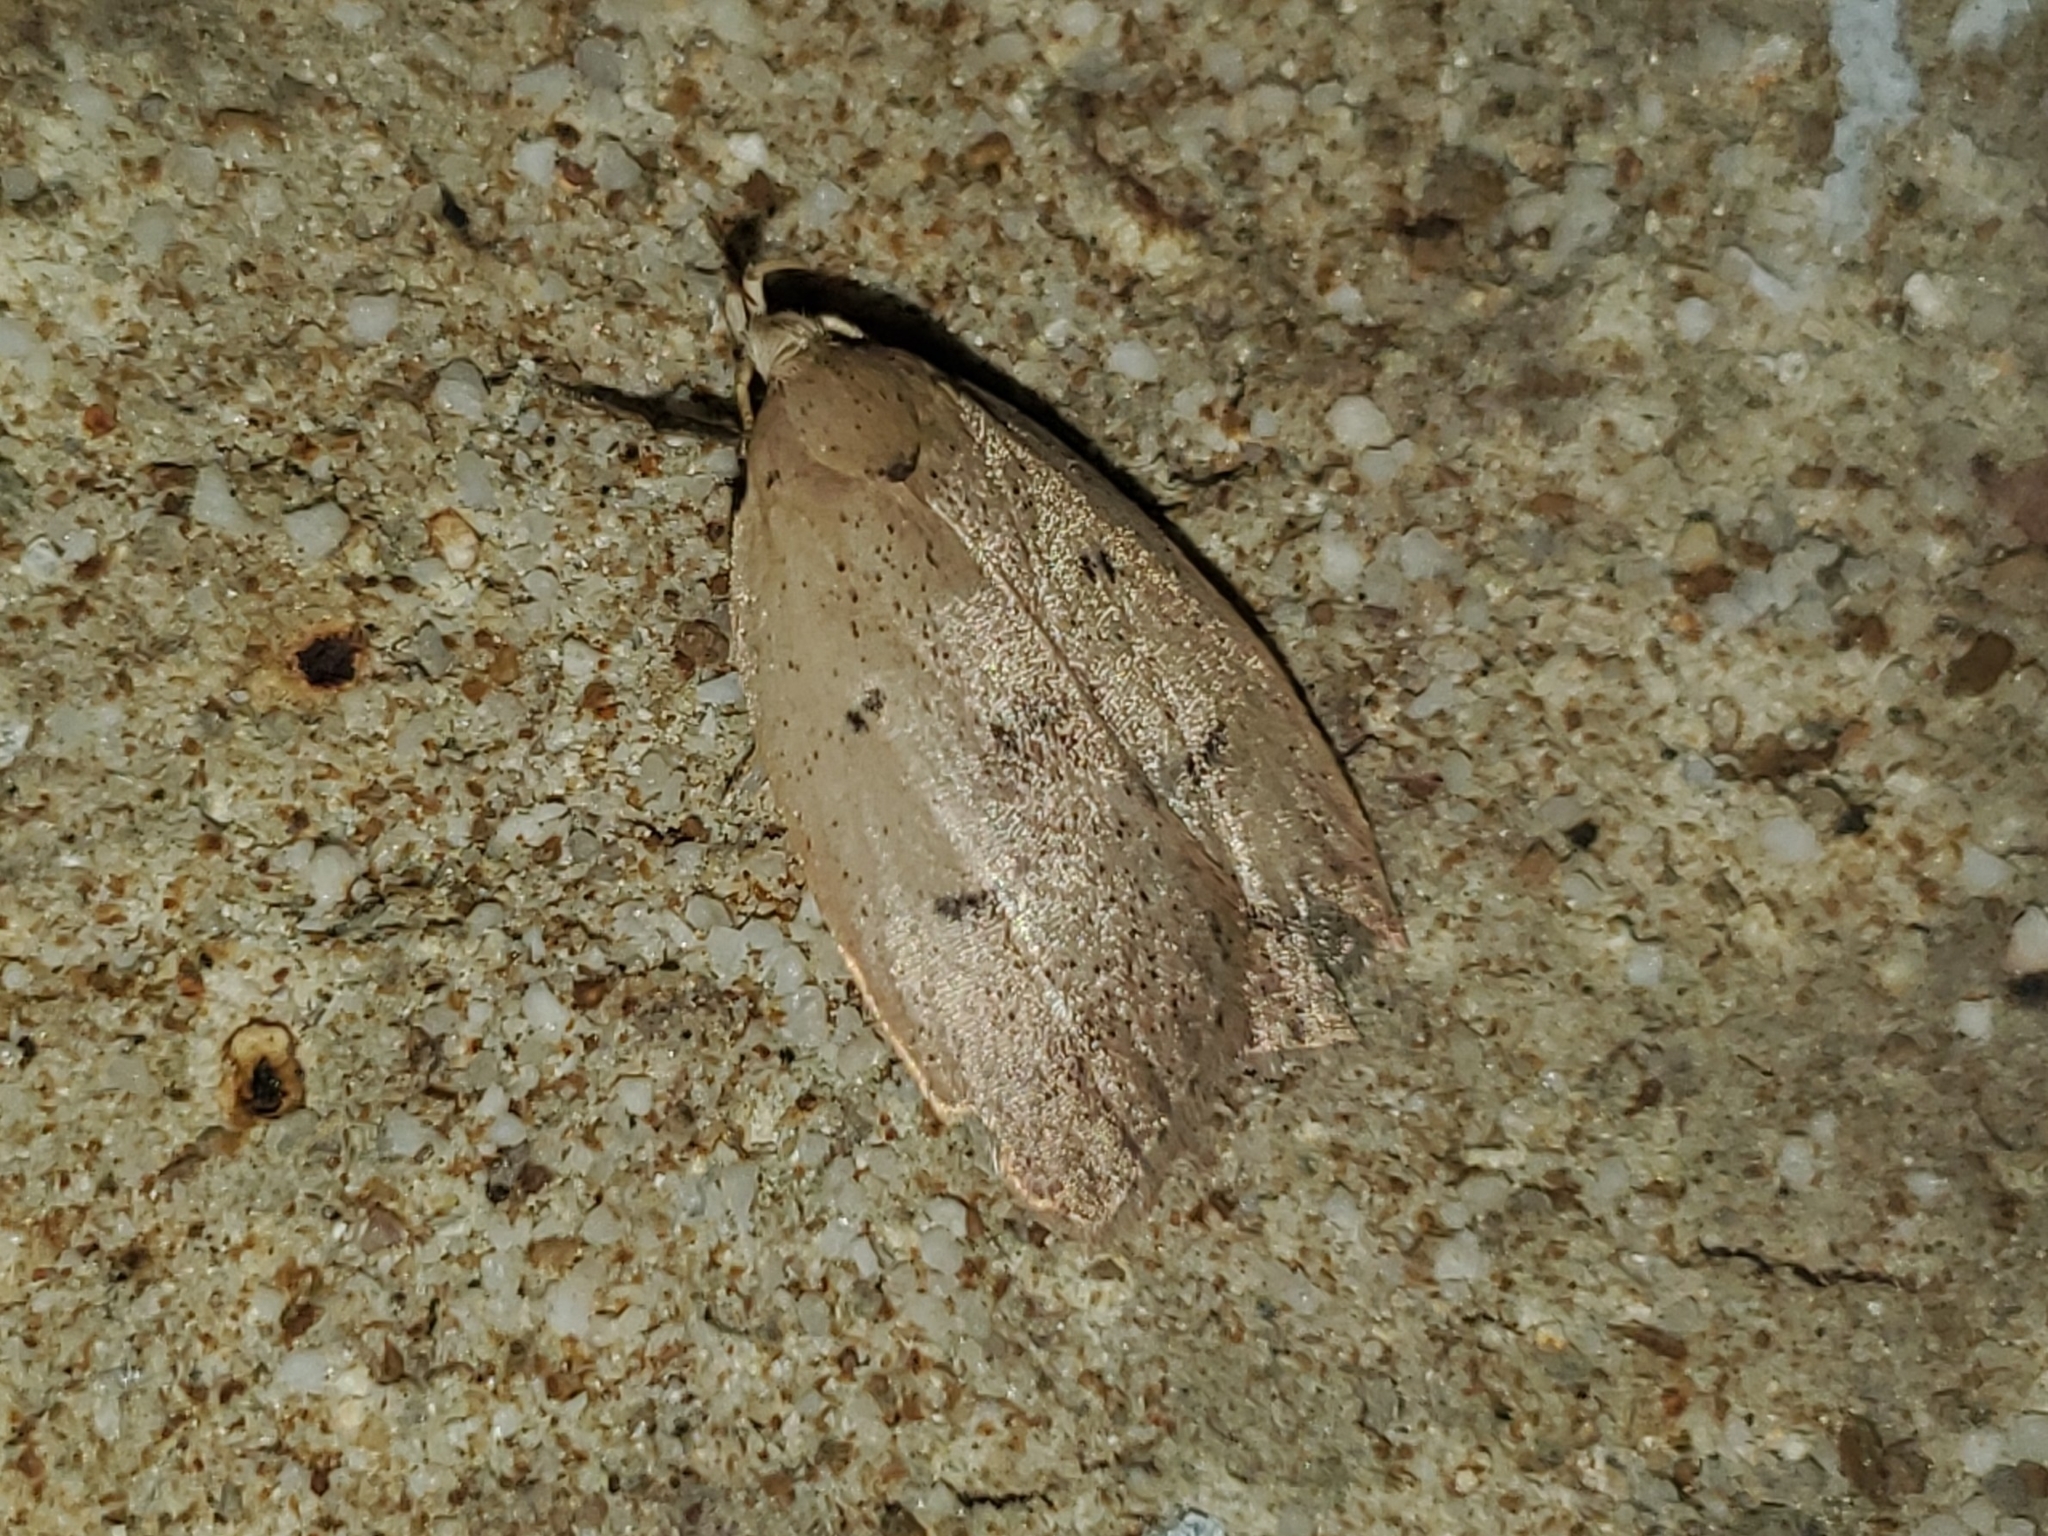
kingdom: Animalia
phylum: Arthropoda
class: Insecta
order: Lepidoptera
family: Peleopodidae
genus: Machimia
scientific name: Machimia tentoriferella
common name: Gold-striped leaftier moth
